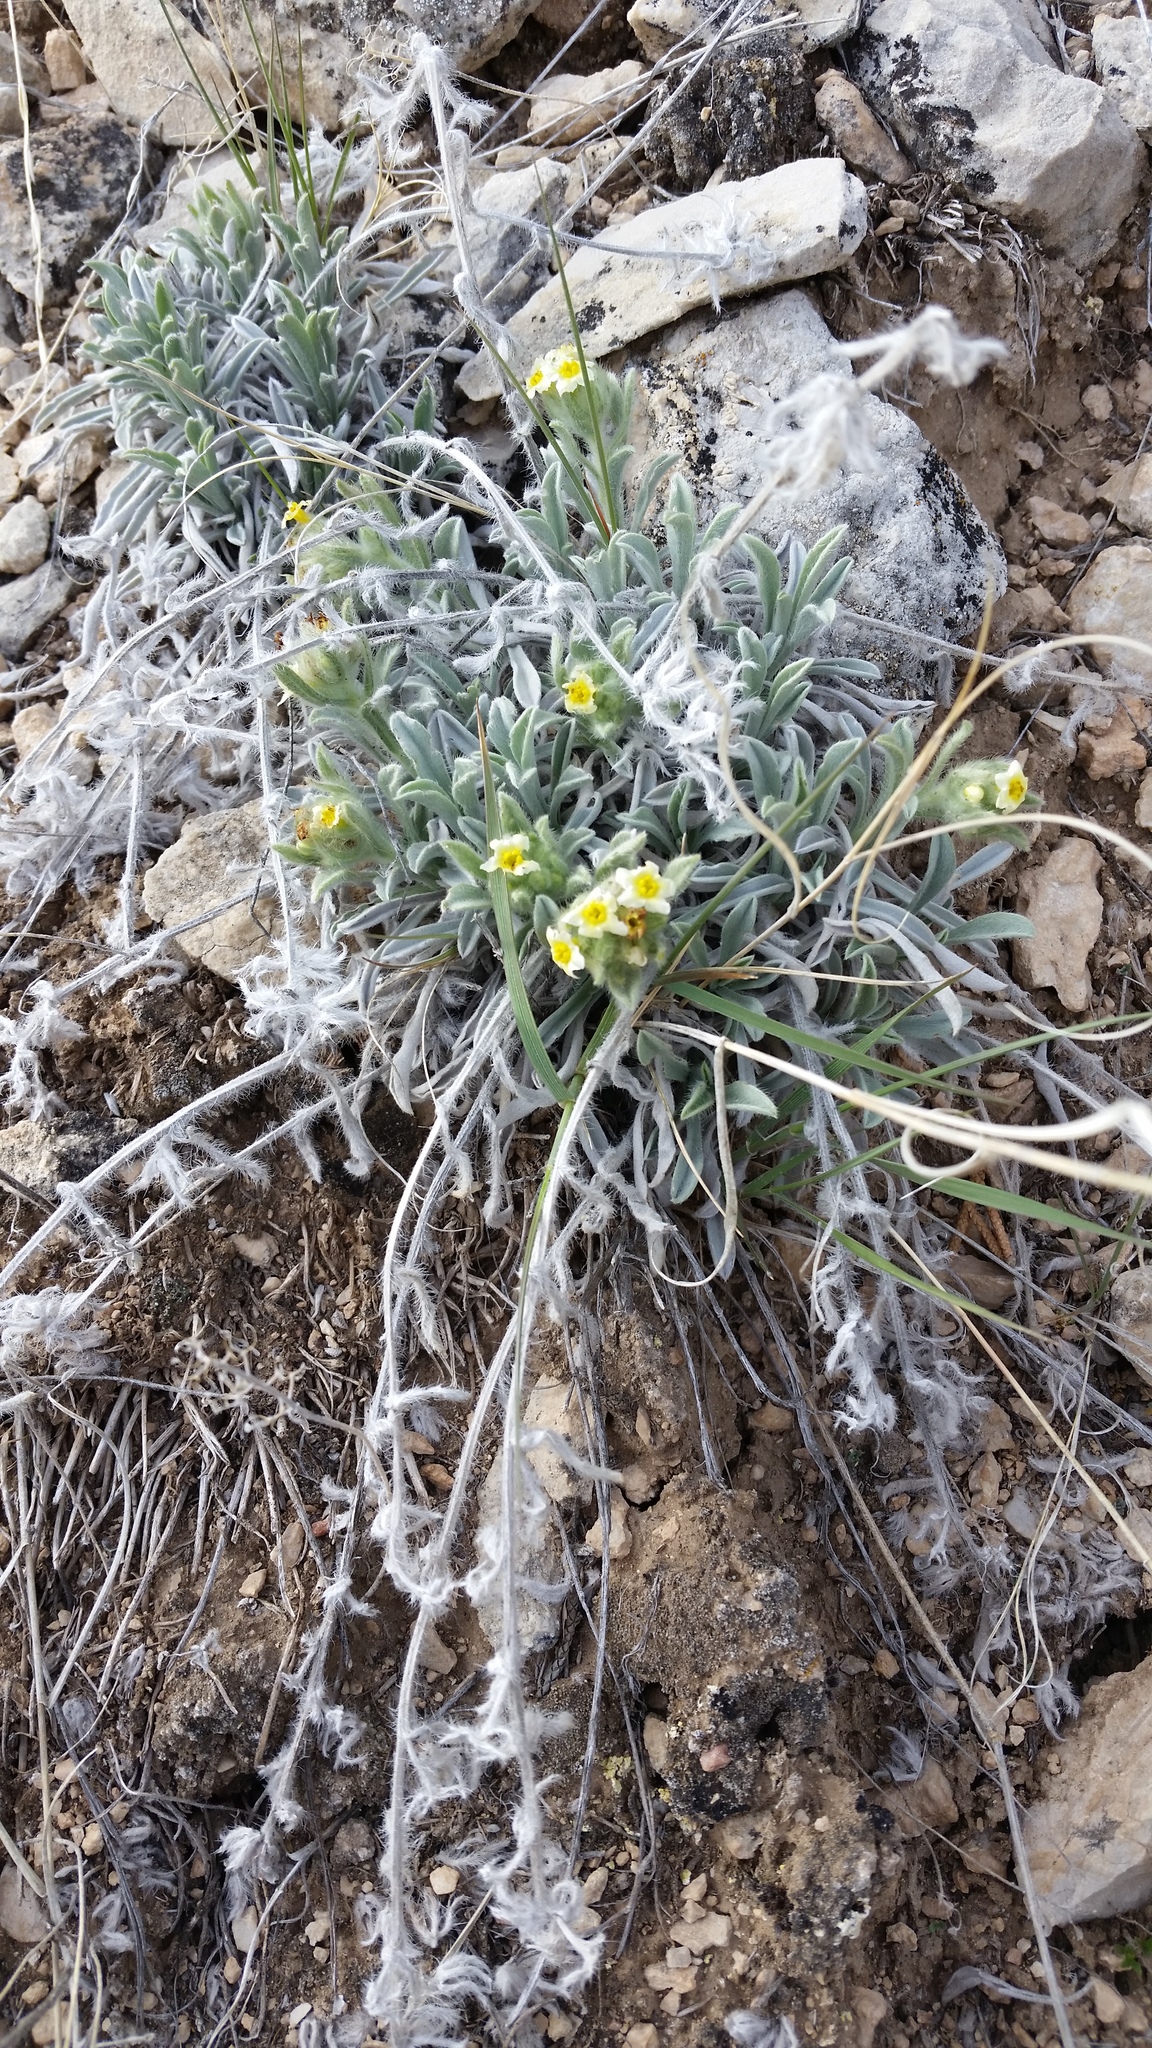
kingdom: Plantae
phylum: Tracheophyta
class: Magnoliopsida
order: Boraginales
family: Boraginaceae
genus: Oreocarya
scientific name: Oreocarya flavoculata
